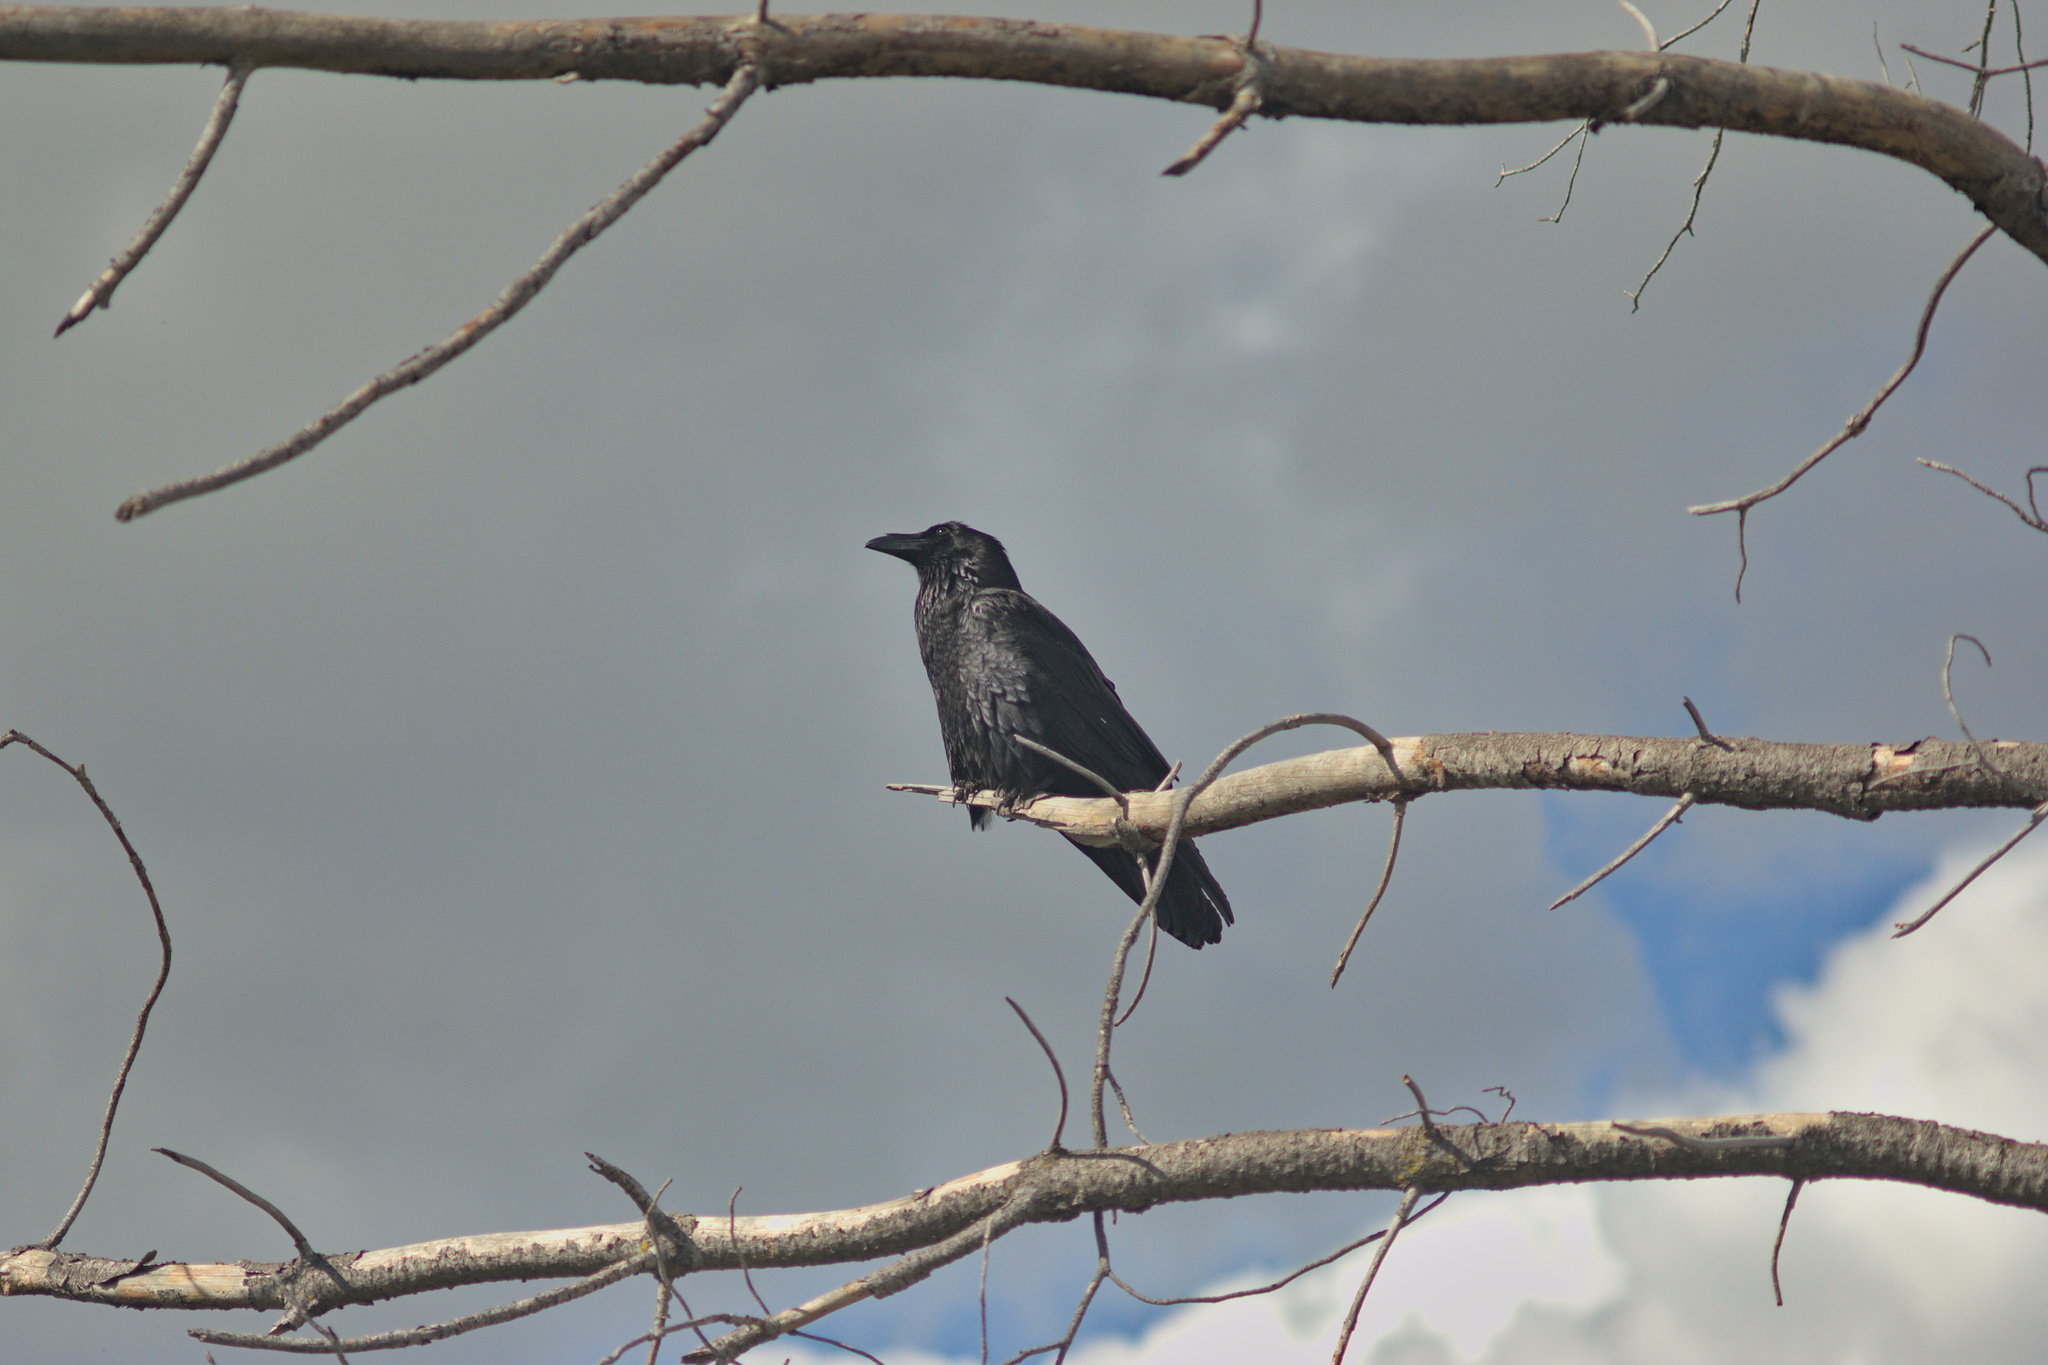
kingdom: Animalia
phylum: Chordata
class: Aves
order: Passeriformes
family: Corvidae
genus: Corvus
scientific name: Corvus corax
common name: Common raven
